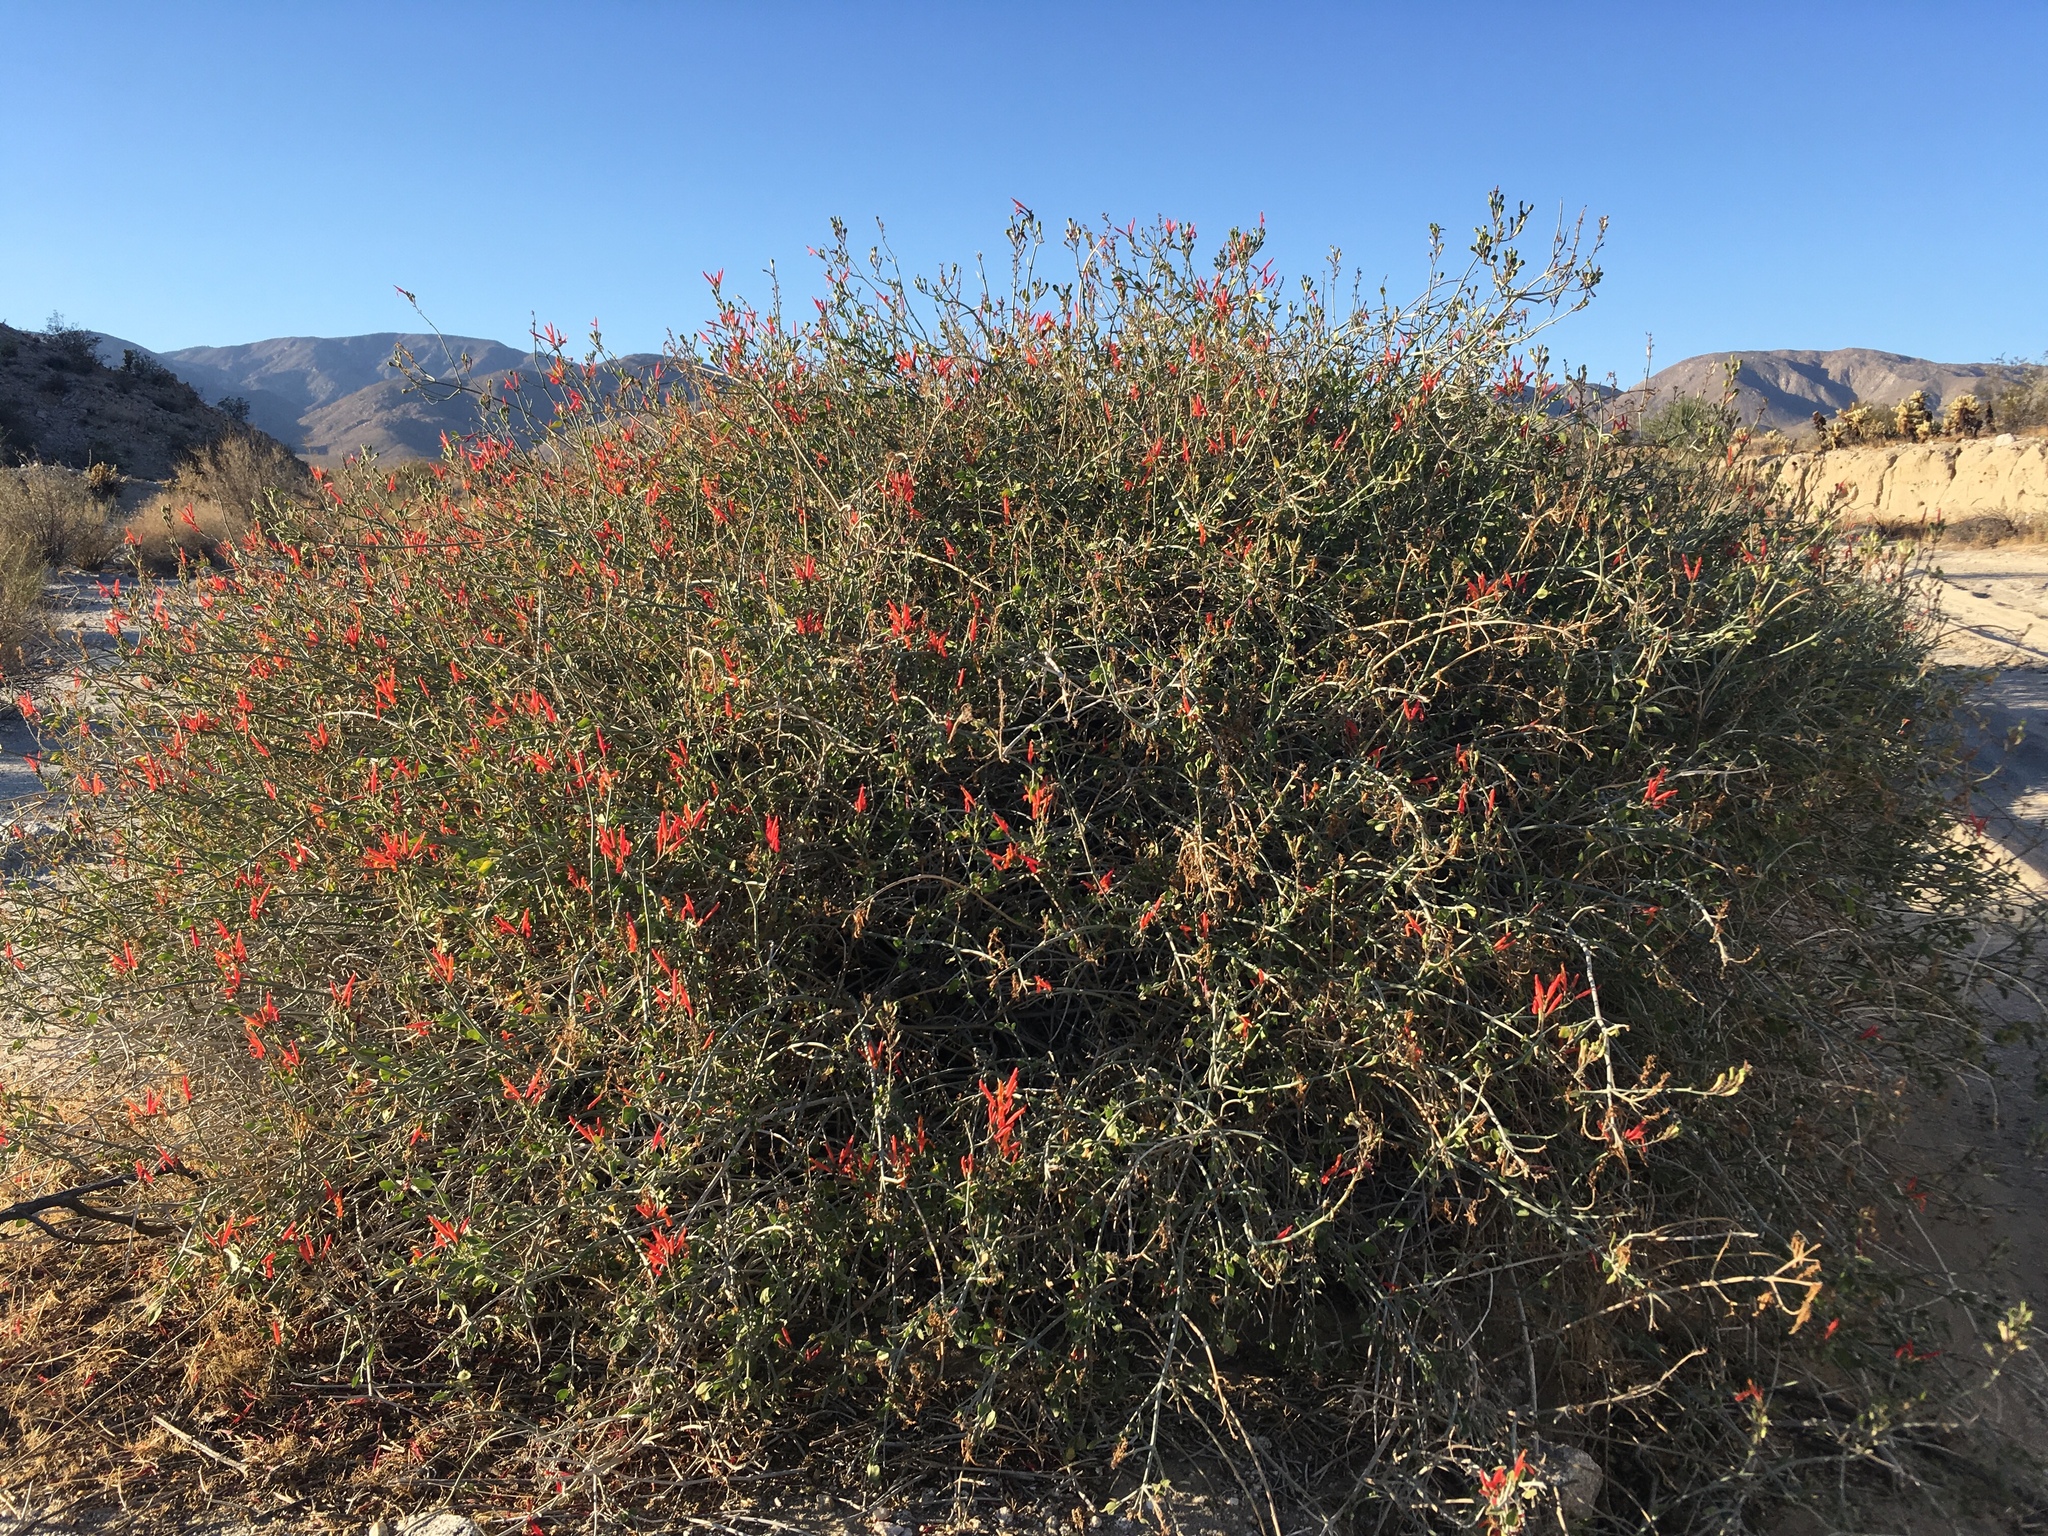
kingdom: Plantae
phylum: Tracheophyta
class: Magnoliopsida
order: Lamiales
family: Acanthaceae
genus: Justicia
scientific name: Justicia californica
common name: Chuparosa-honeysuckle
